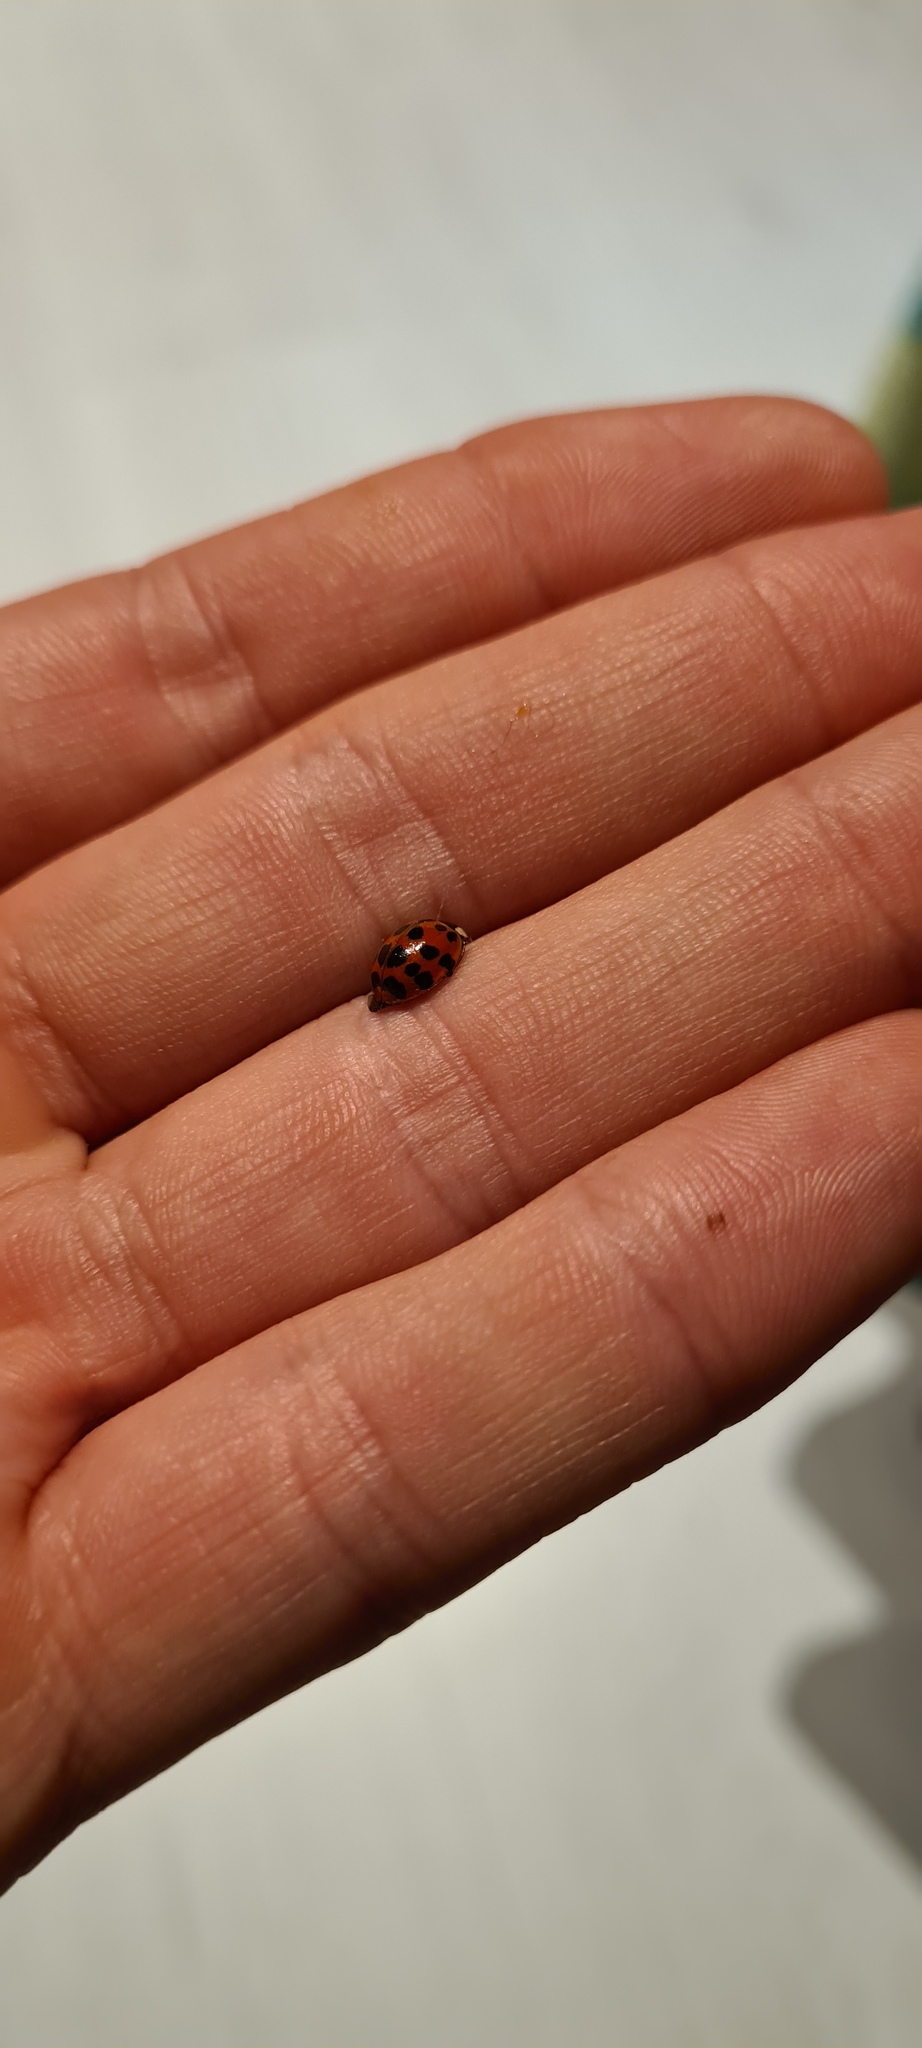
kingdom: Animalia
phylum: Arthropoda
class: Insecta
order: Coleoptera
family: Coccinellidae
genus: Harmonia
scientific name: Harmonia axyridis
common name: Harlequin ladybird
